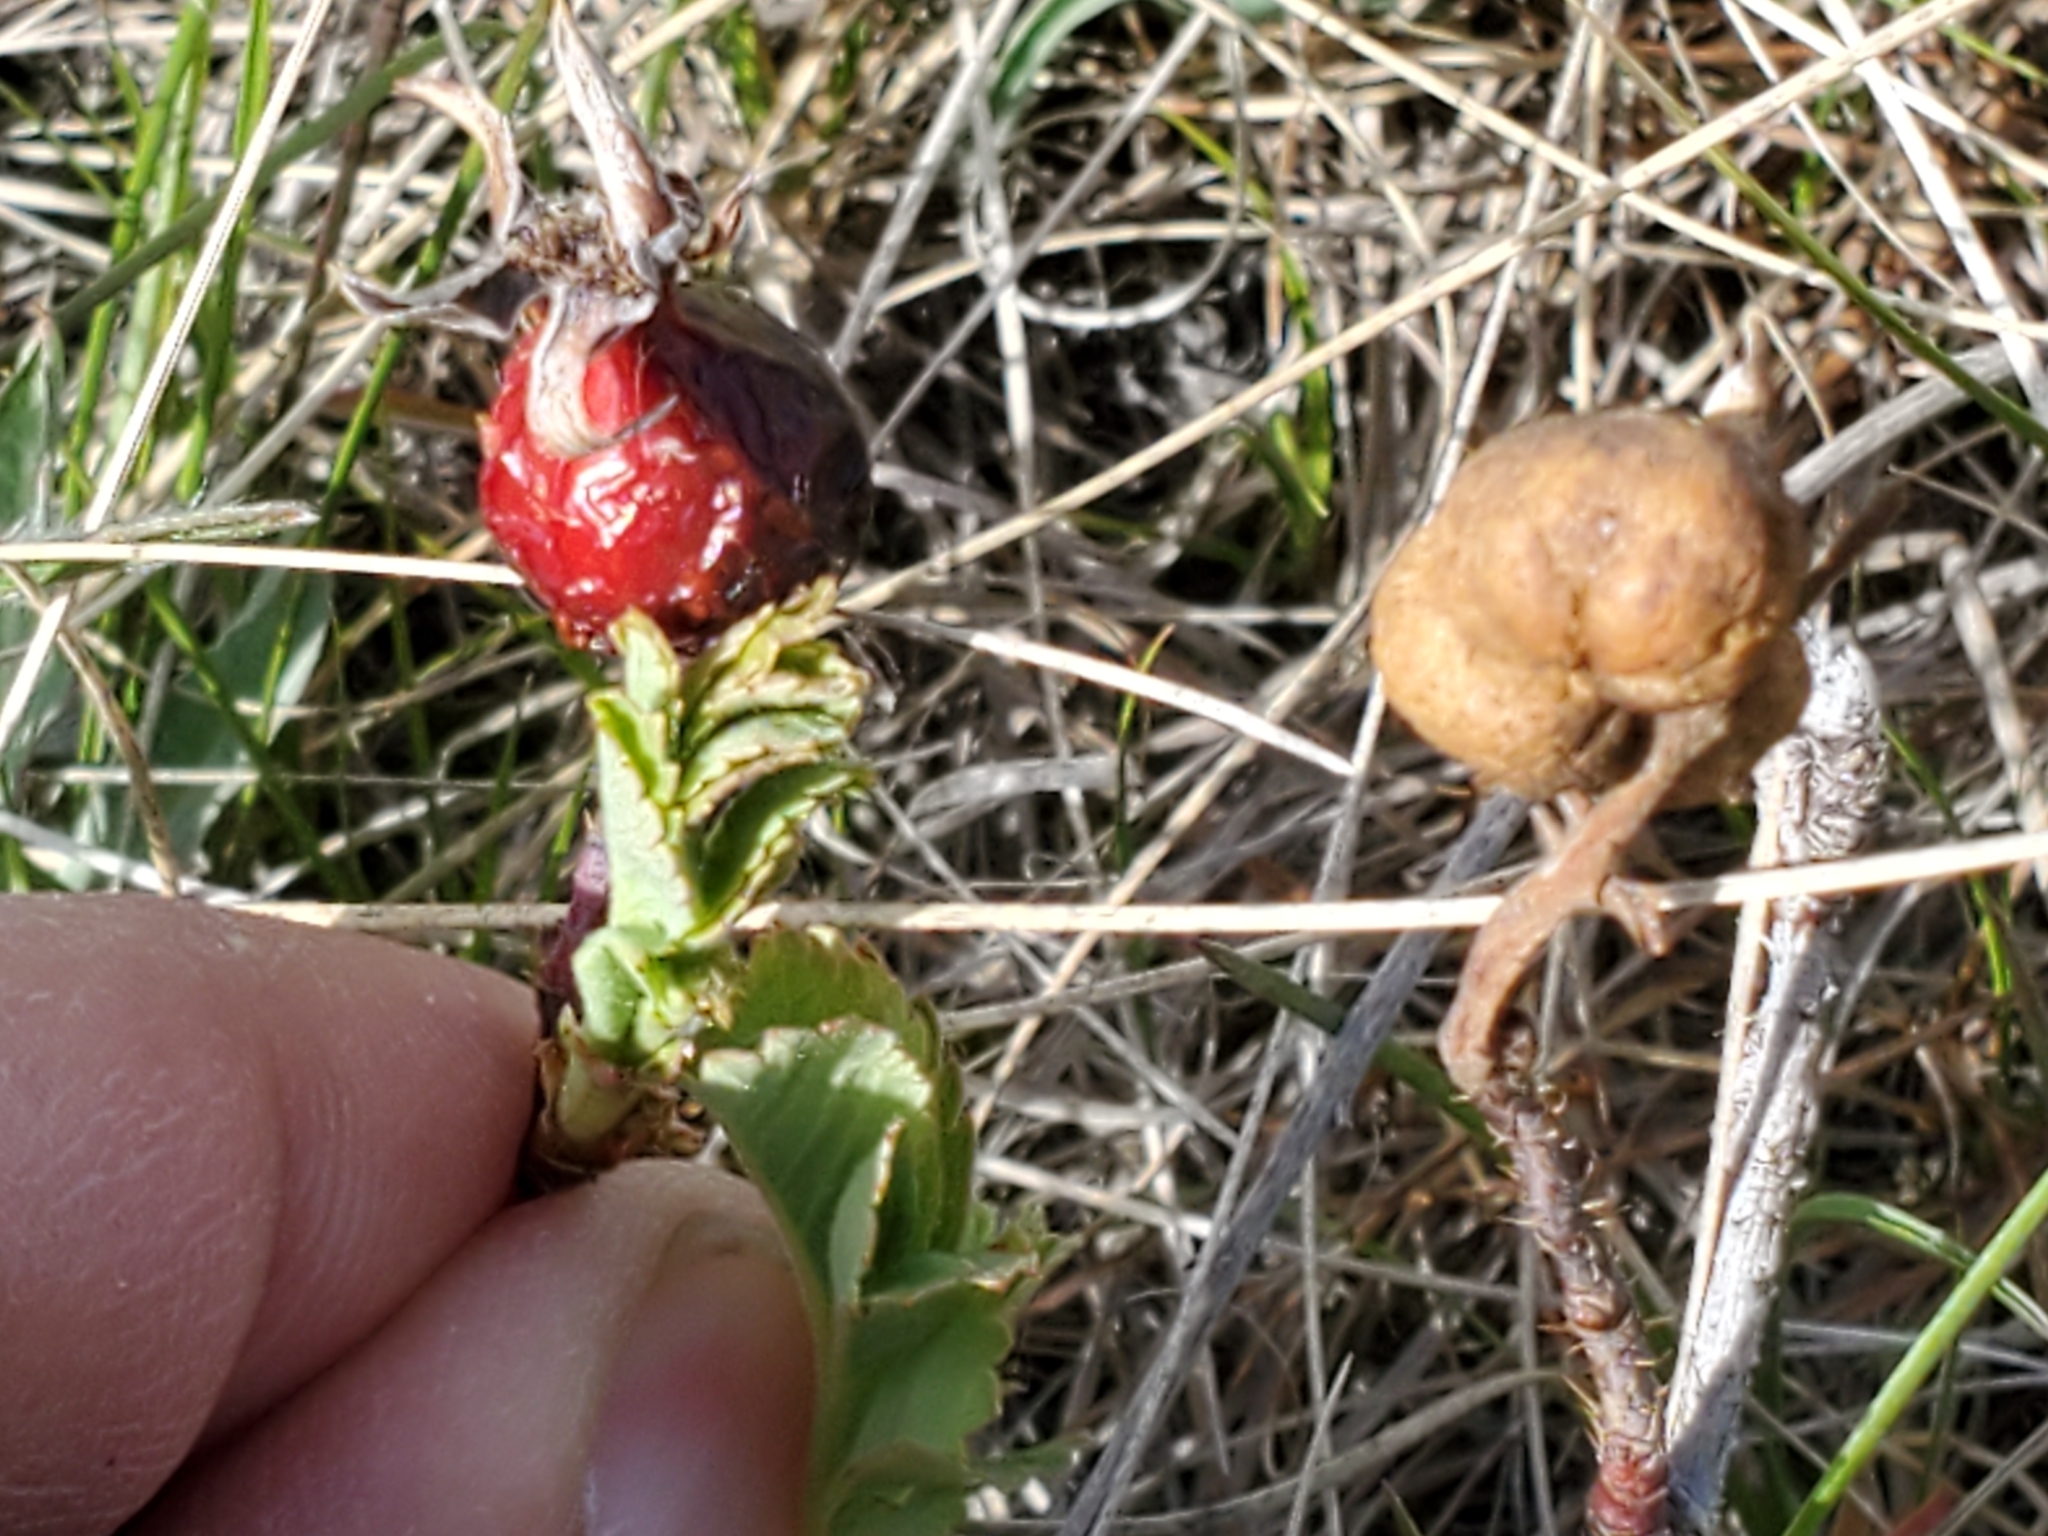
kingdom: Animalia
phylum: Arthropoda
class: Insecta
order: Hymenoptera
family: Cynipidae
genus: Diplolepis
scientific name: Diplolepis ignota
